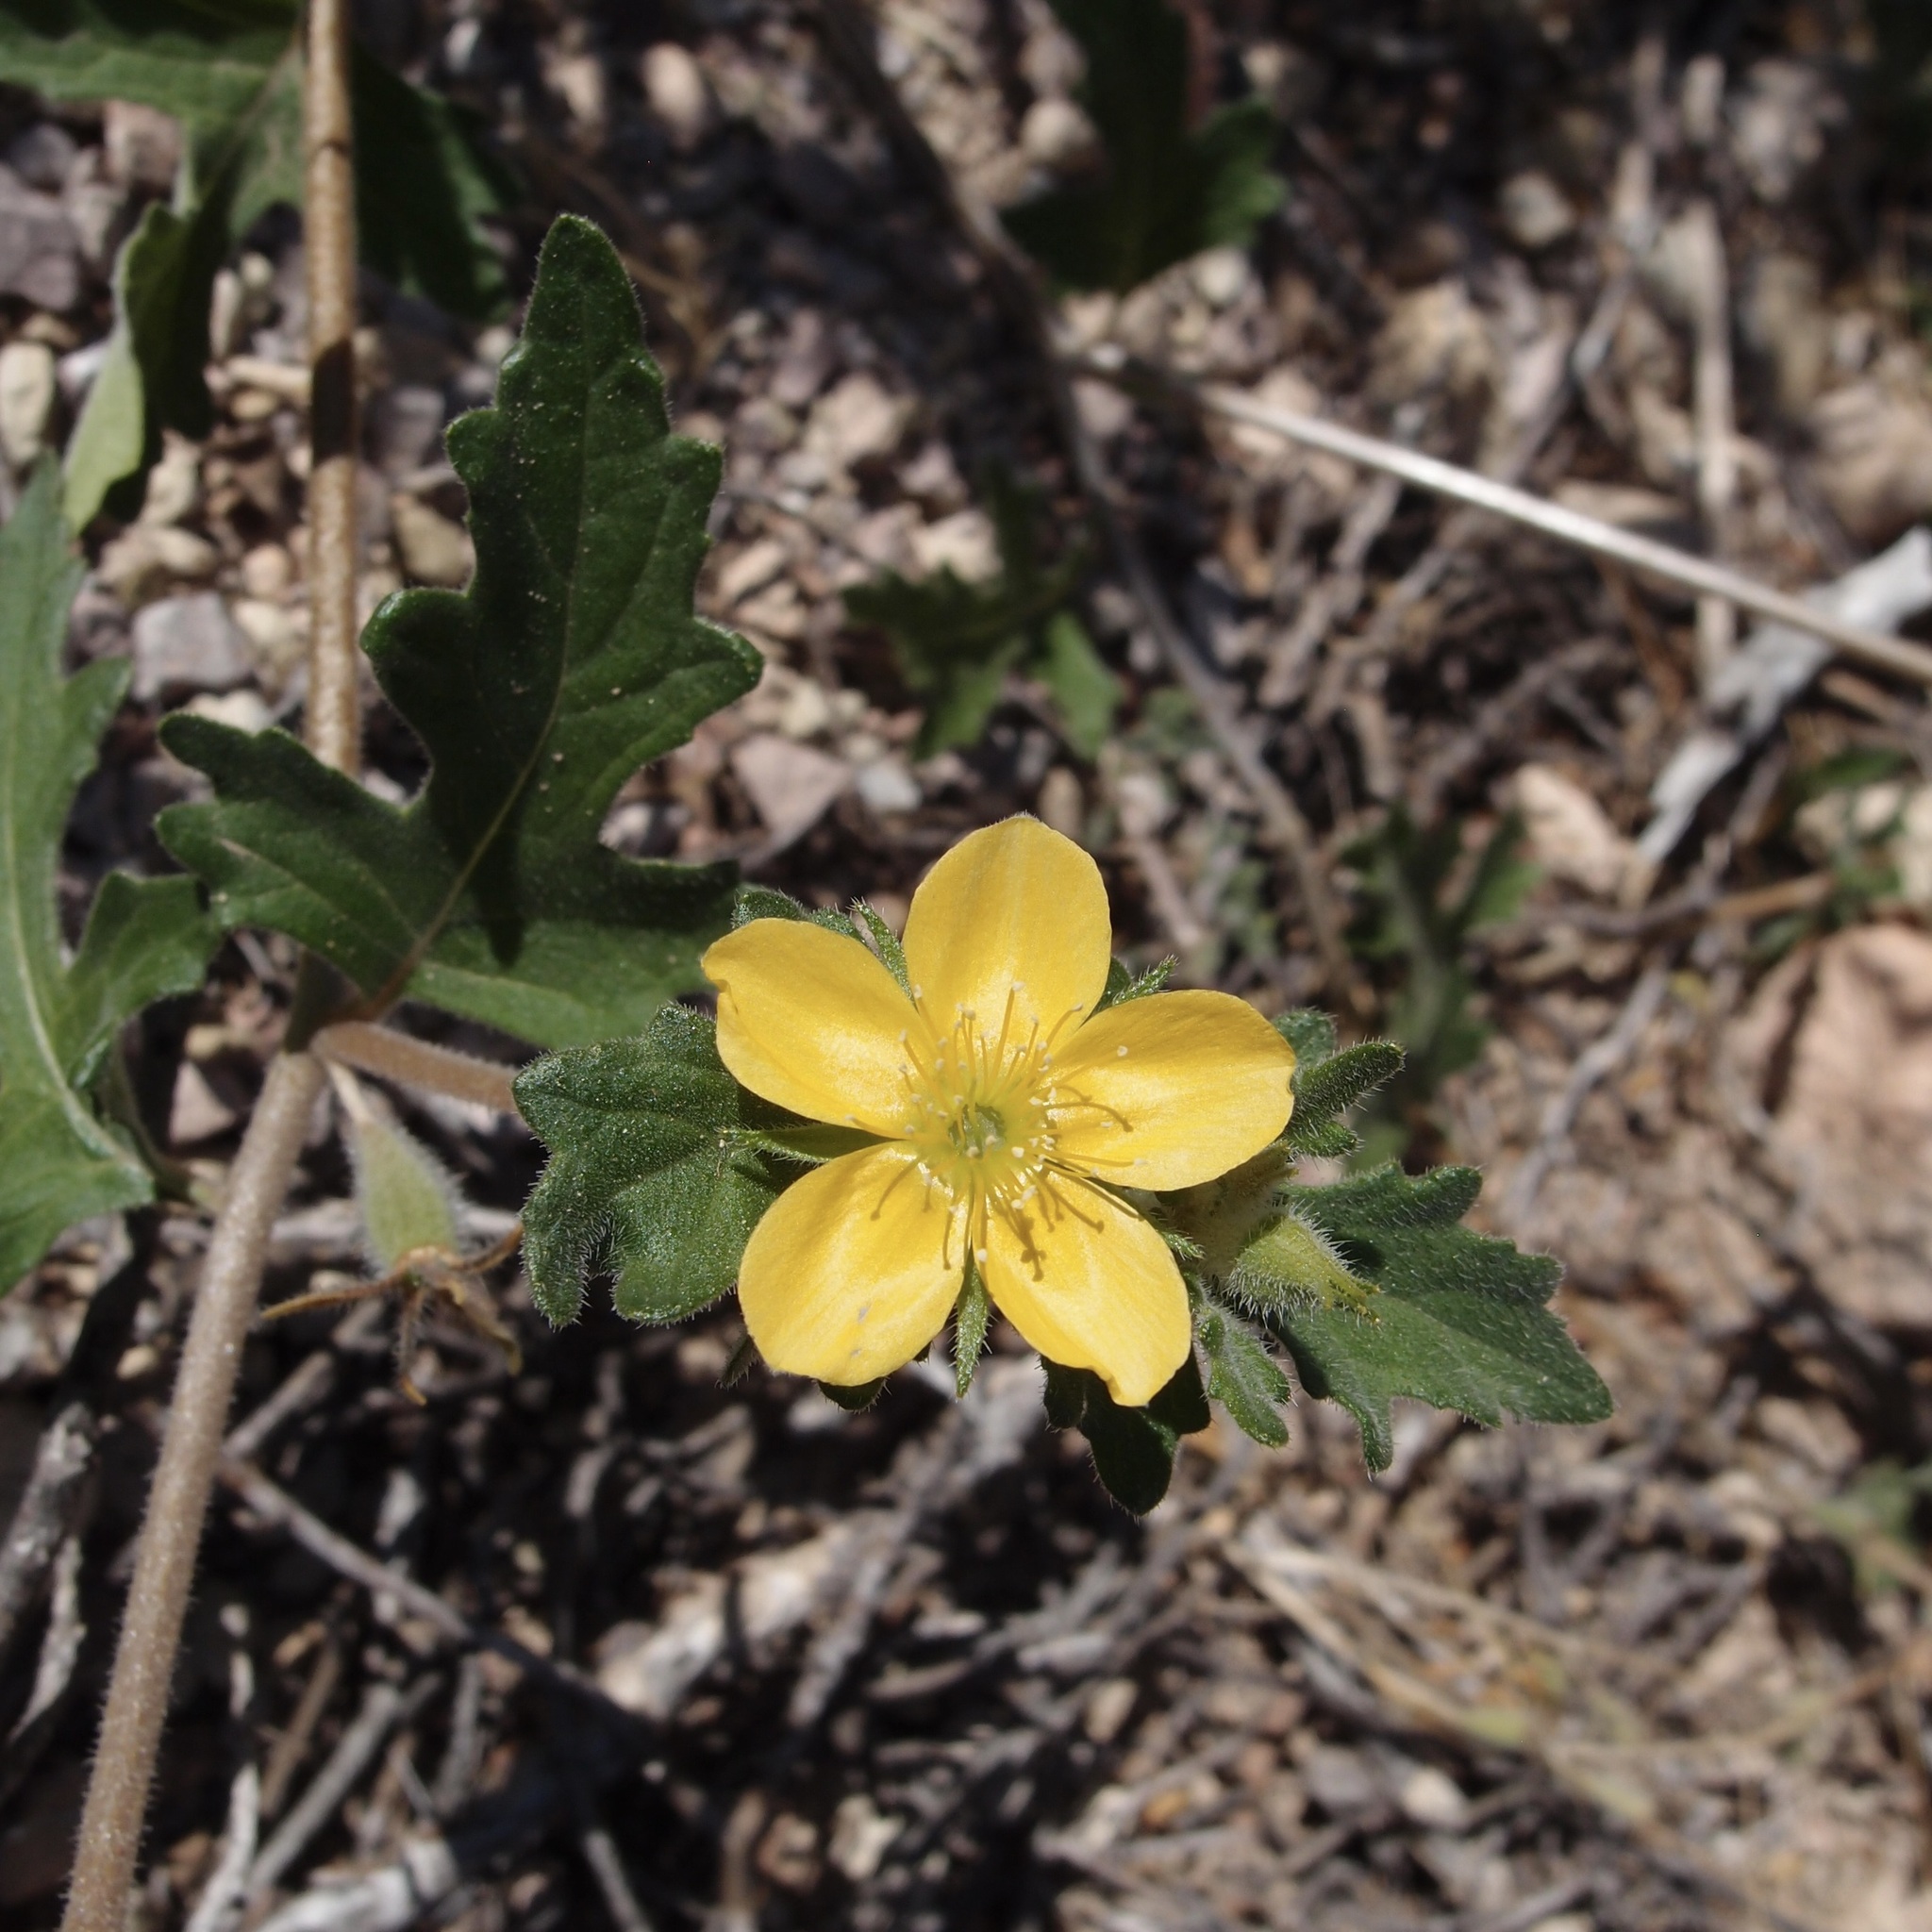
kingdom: Plantae
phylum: Tracheophyta
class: Magnoliopsida
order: Cornales
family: Loasaceae
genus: Mentzelia
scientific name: Mentzelia adhaerens
